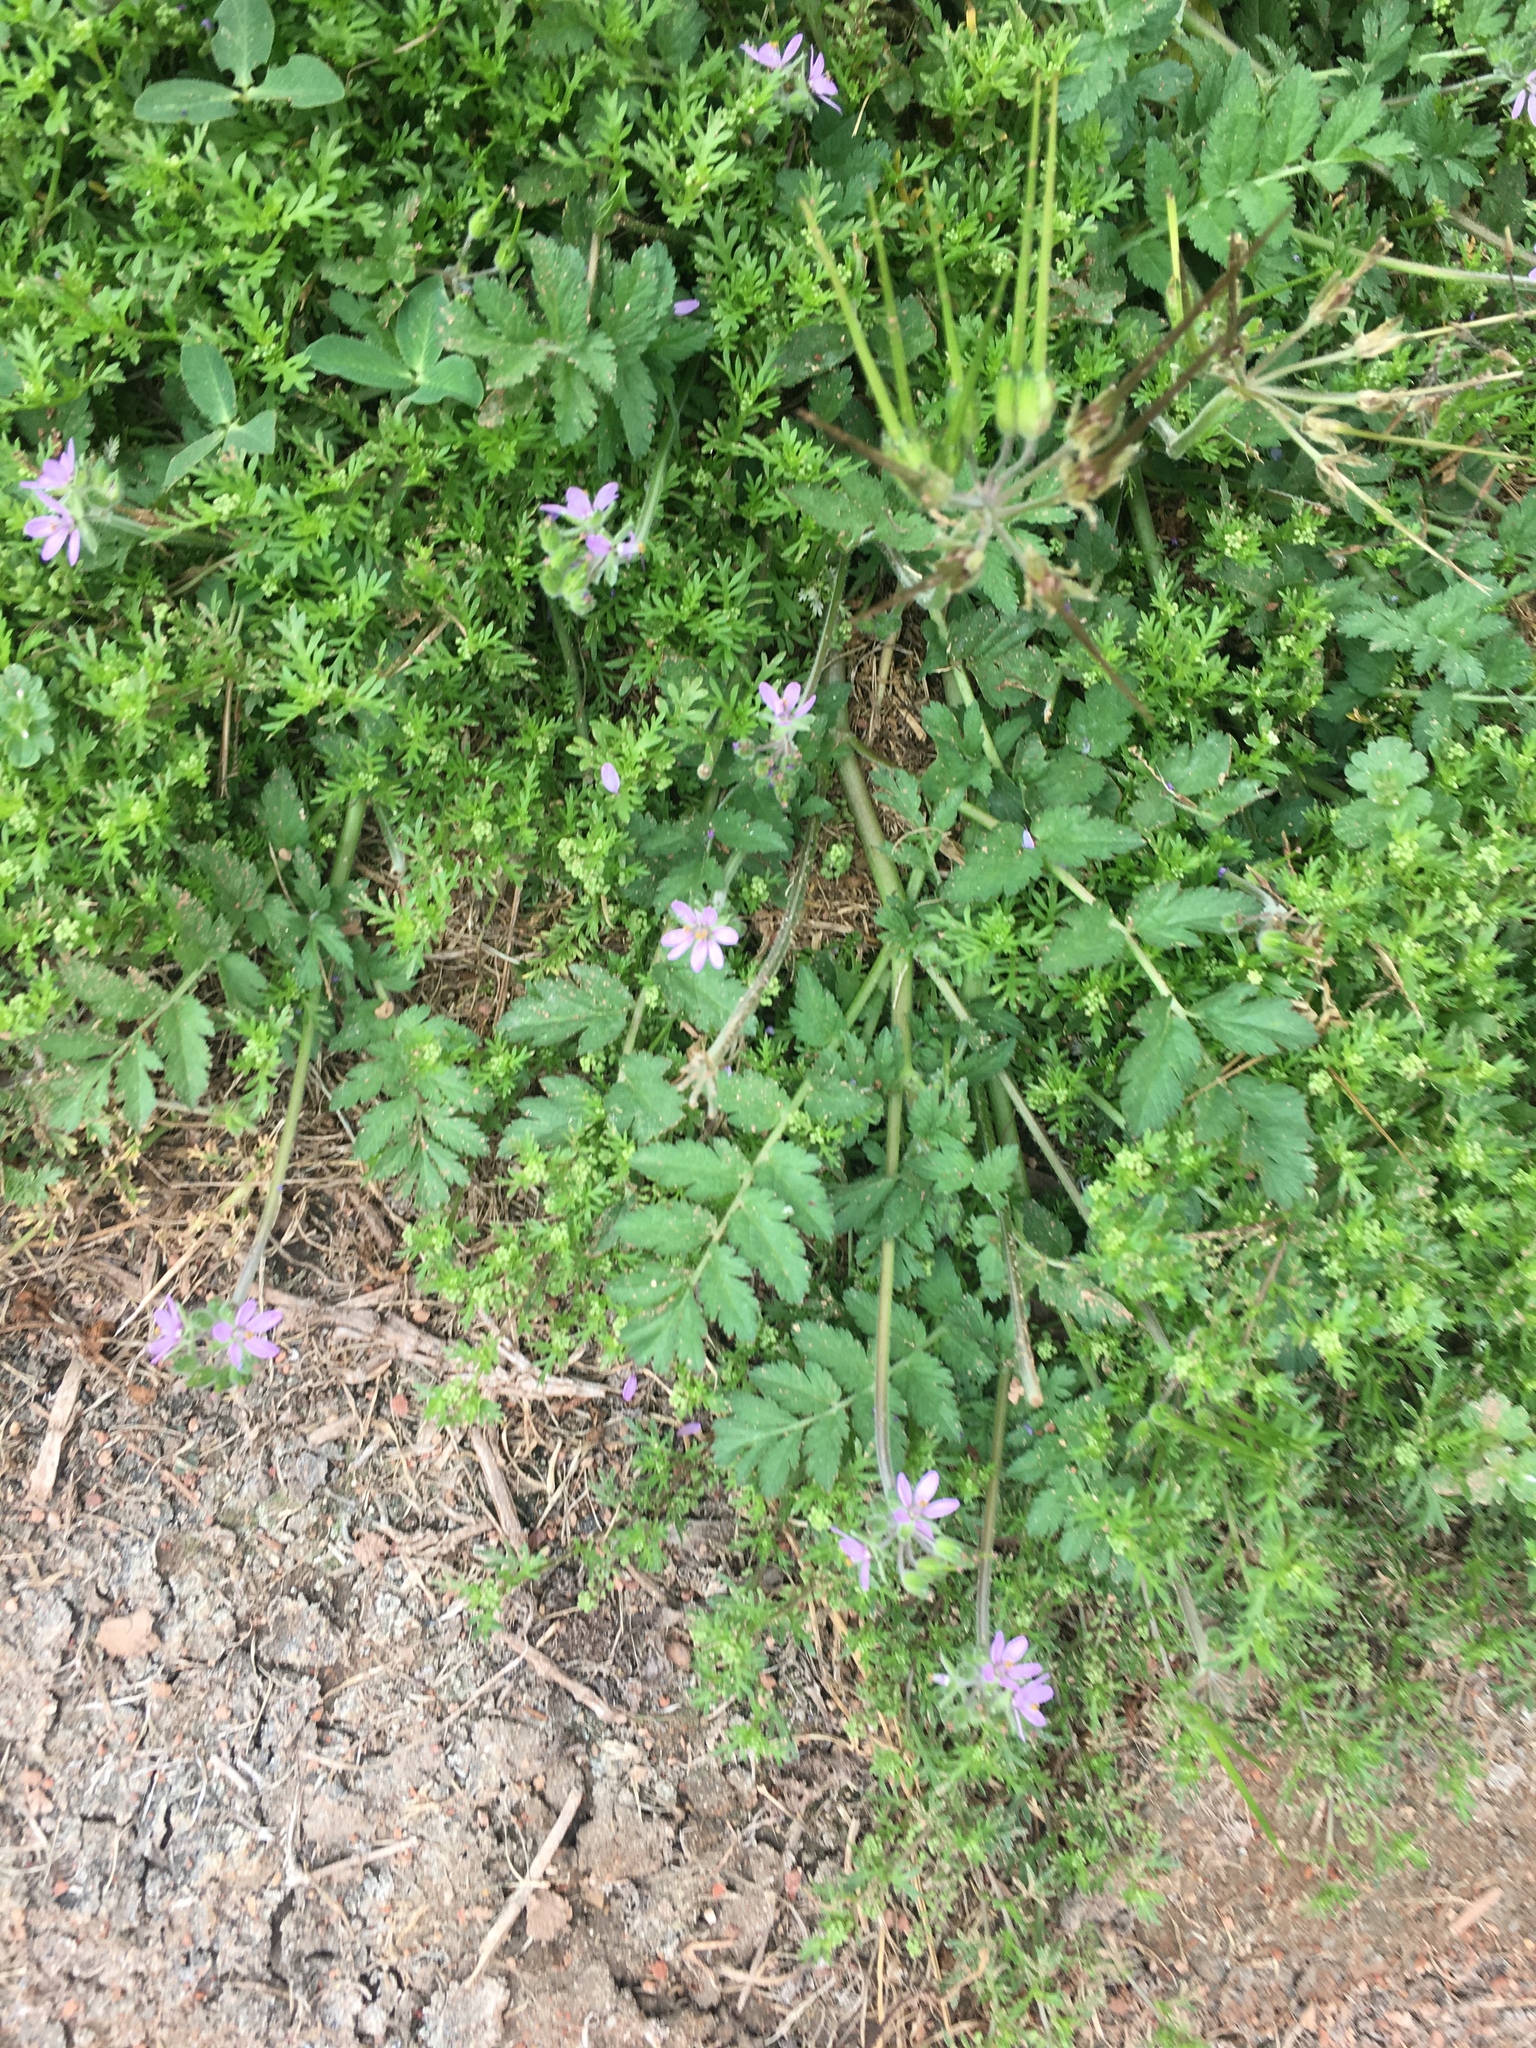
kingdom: Plantae
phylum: Tracheophyta
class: Magnoliopsida
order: Geraniales
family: Geraniaceae
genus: Erodium
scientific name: Erodium moschatum
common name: Musk stork's-bill
